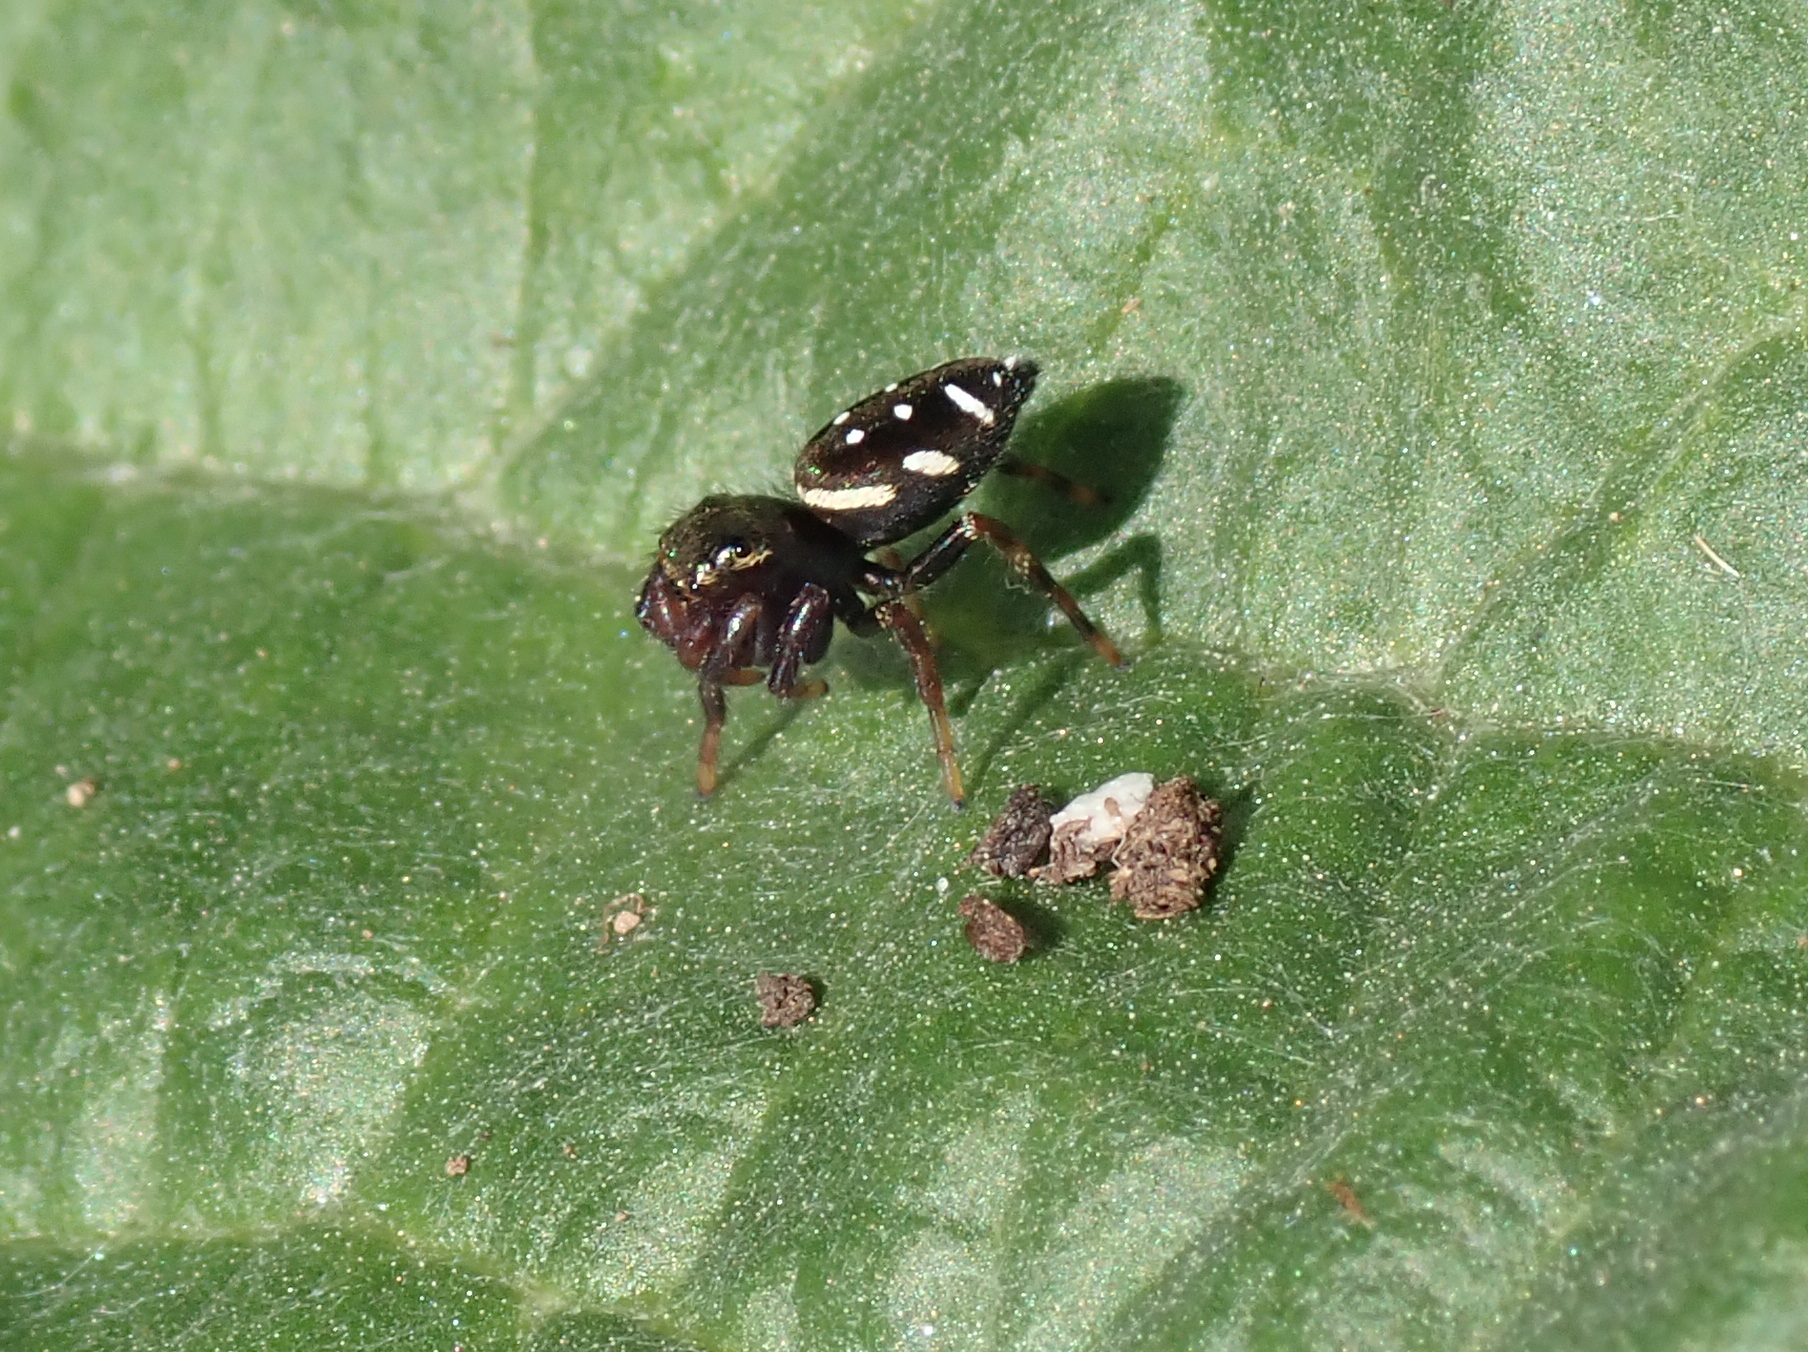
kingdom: Animalia
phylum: Arthropoda
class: Arachnida
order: Araneae
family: Salticidae
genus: Paraphidippus
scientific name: Paraphidippus aurantius
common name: Jumping spiders
